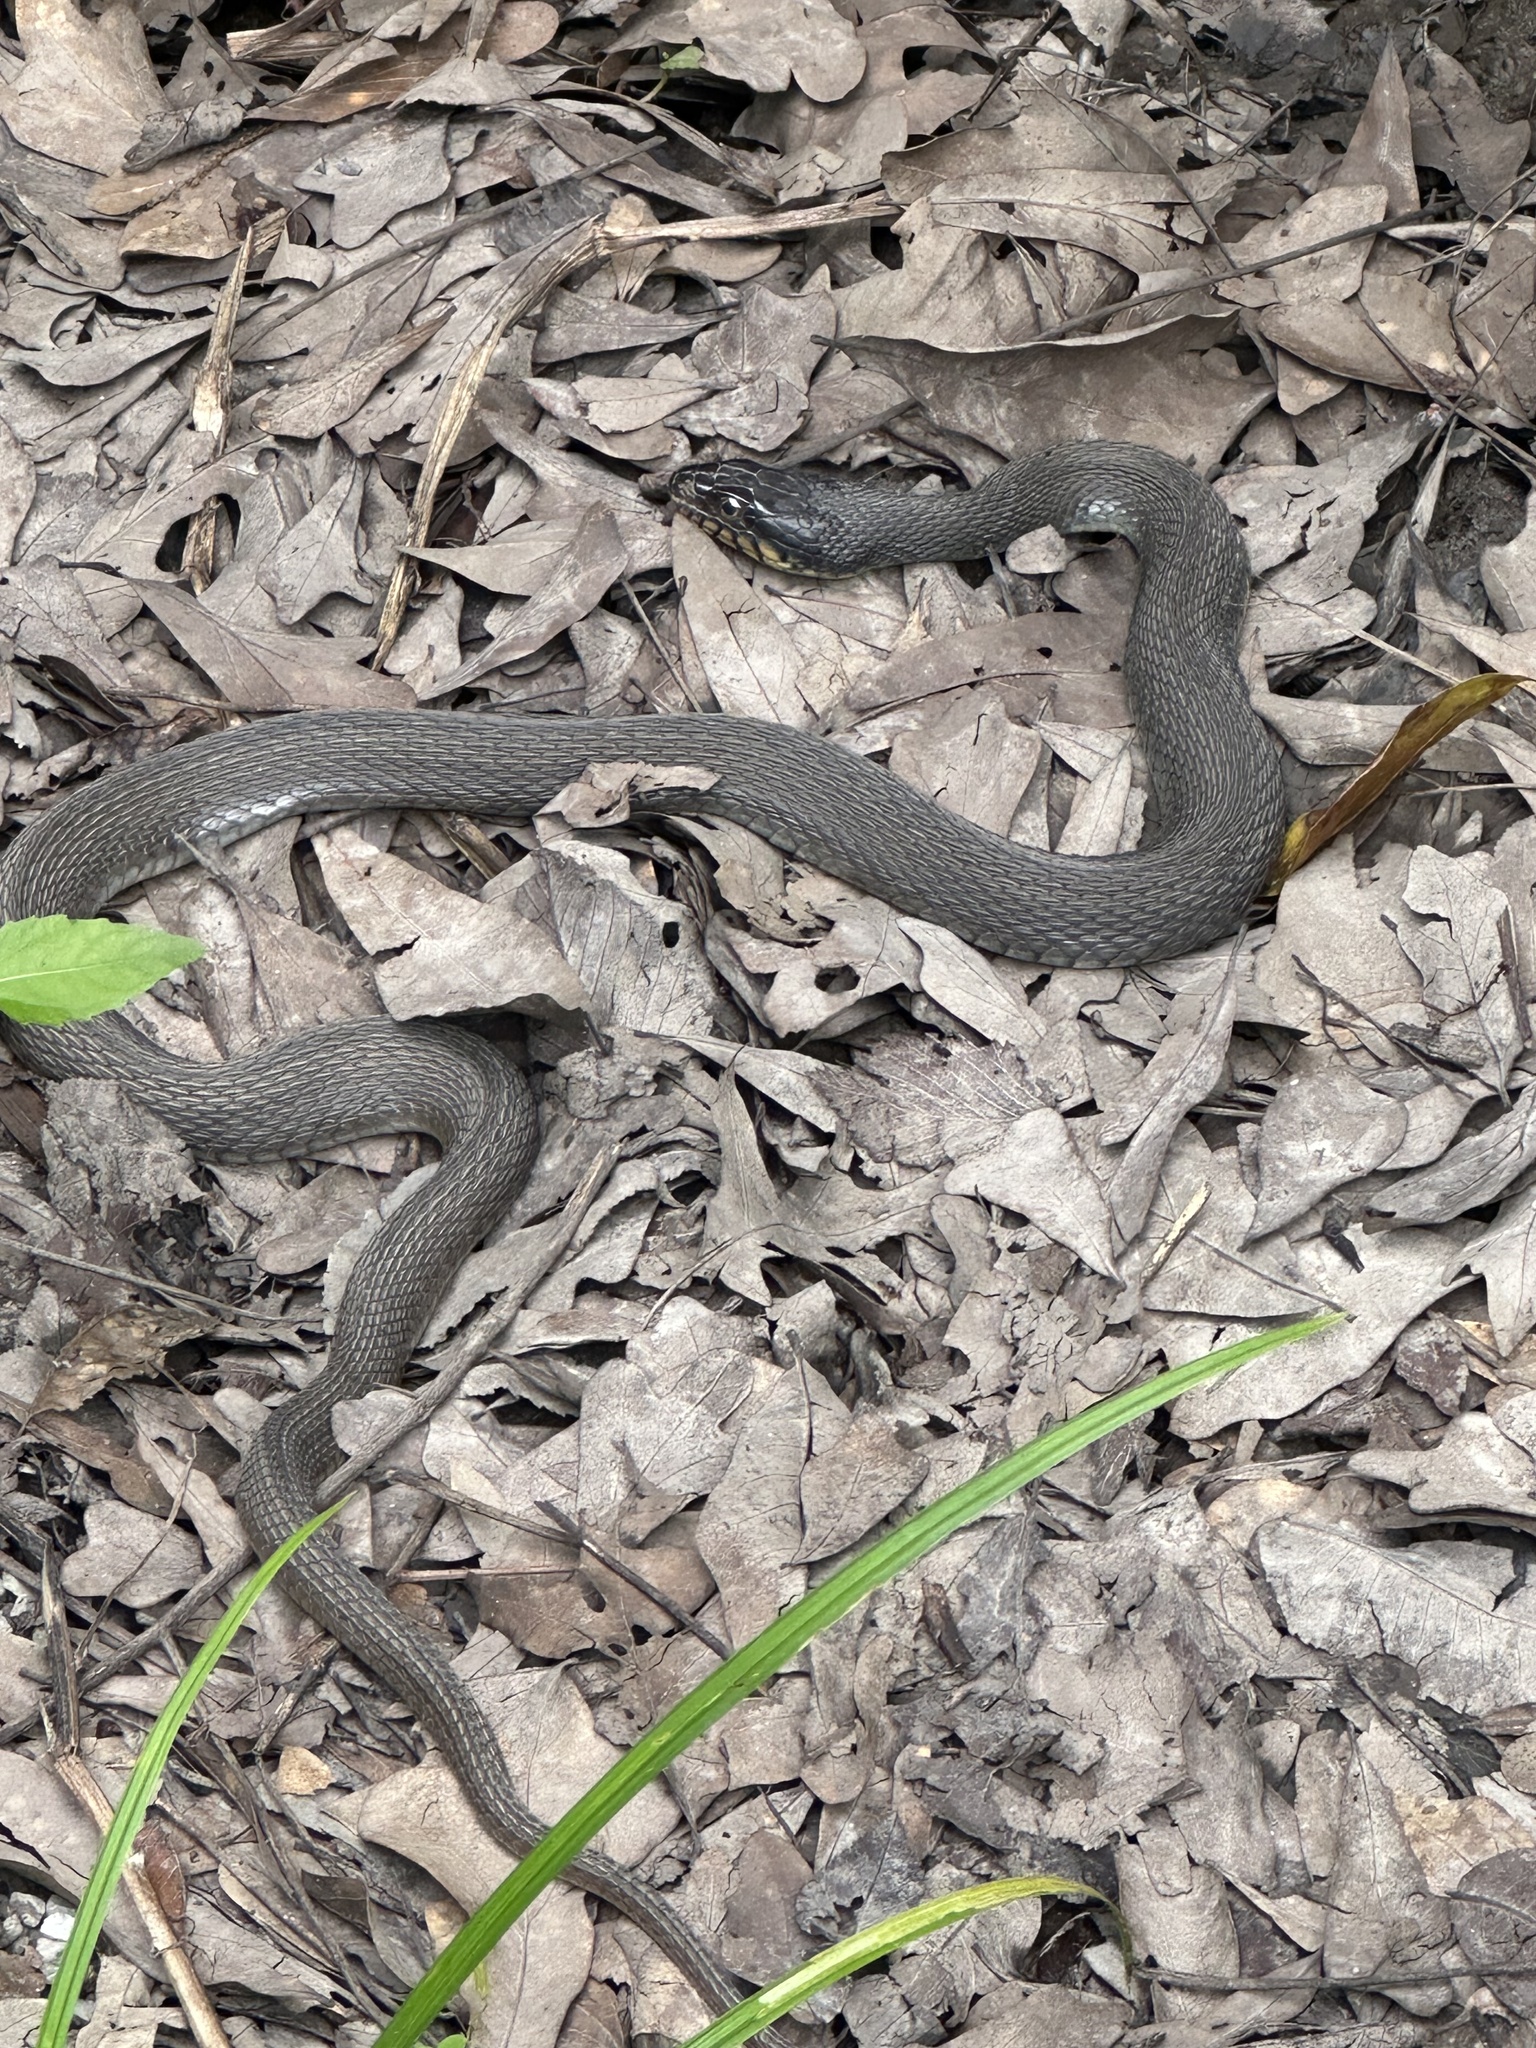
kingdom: Animalia
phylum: Chordata
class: Squamata
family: Colubridae
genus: Nerodia
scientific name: Nerodia erythrogaster
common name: Plainbelly water snake
